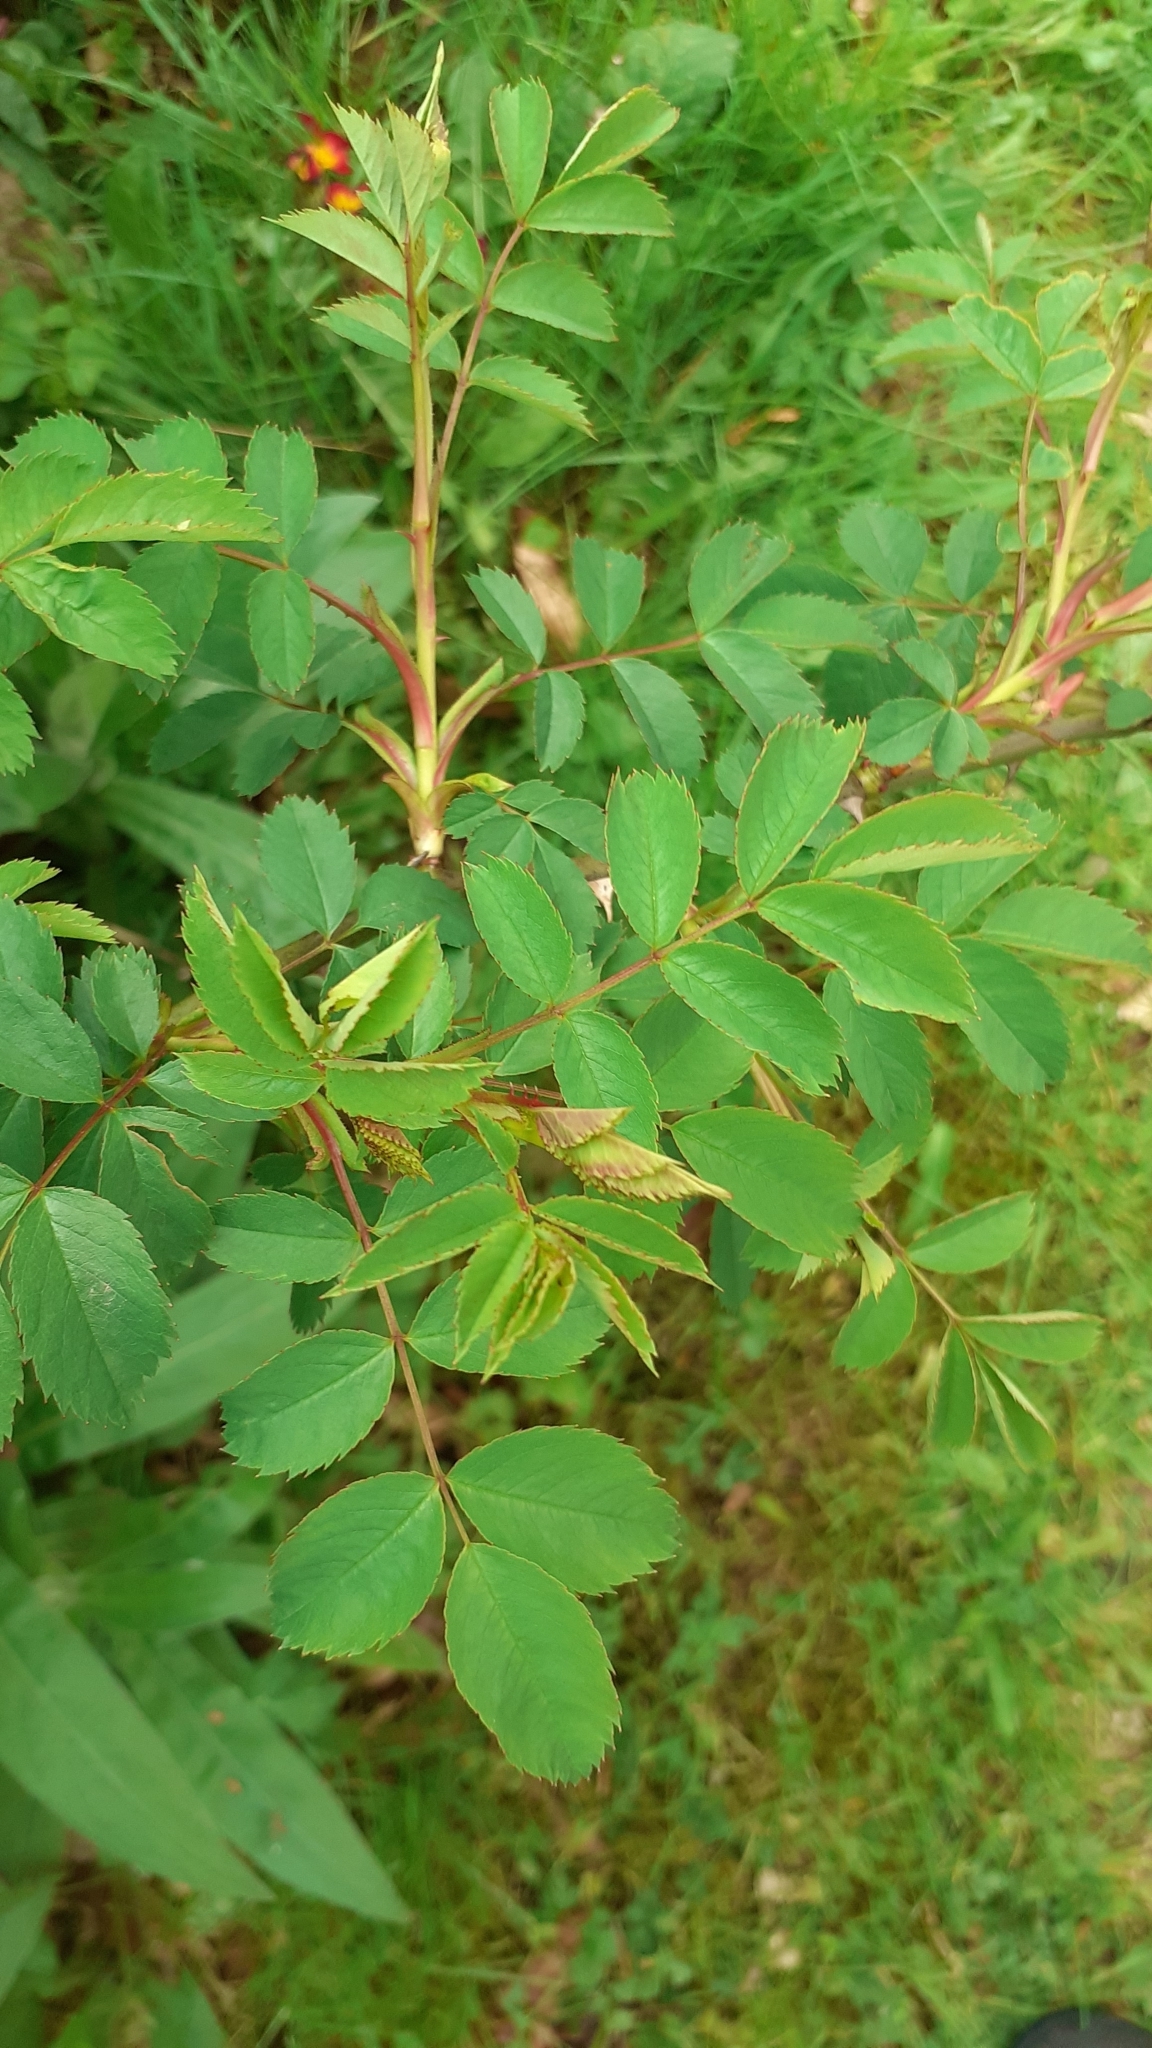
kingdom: Plantae
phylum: Tracheophyta
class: Magnoliopsida
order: Rosales
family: Rosaceae
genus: Rosa
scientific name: Rosa canina
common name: Dog rose
